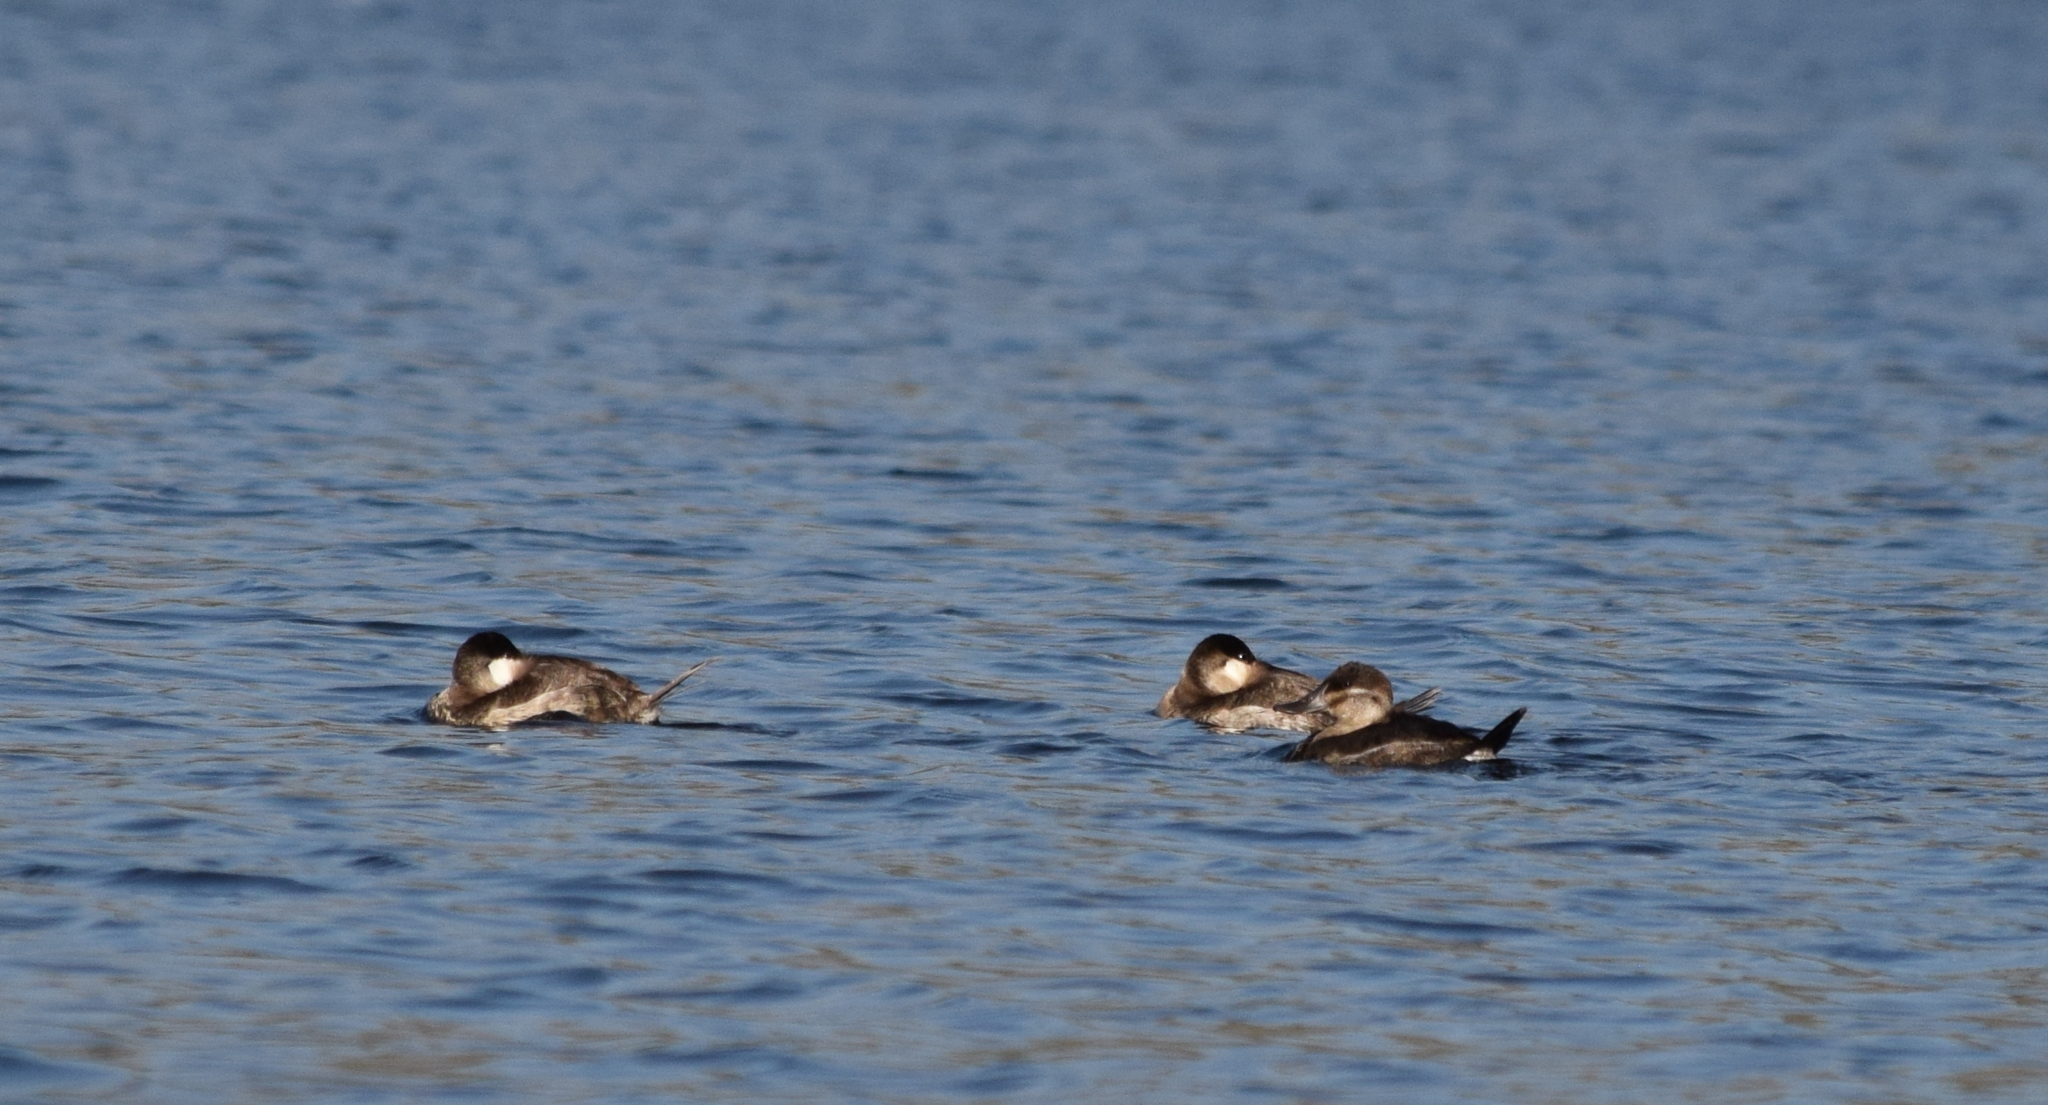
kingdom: Animalia
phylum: Chordata
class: Aves
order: Anseriformes
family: Anatidae
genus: Oxyura
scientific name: Oxyura jamaicensis
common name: Ruddy duck
